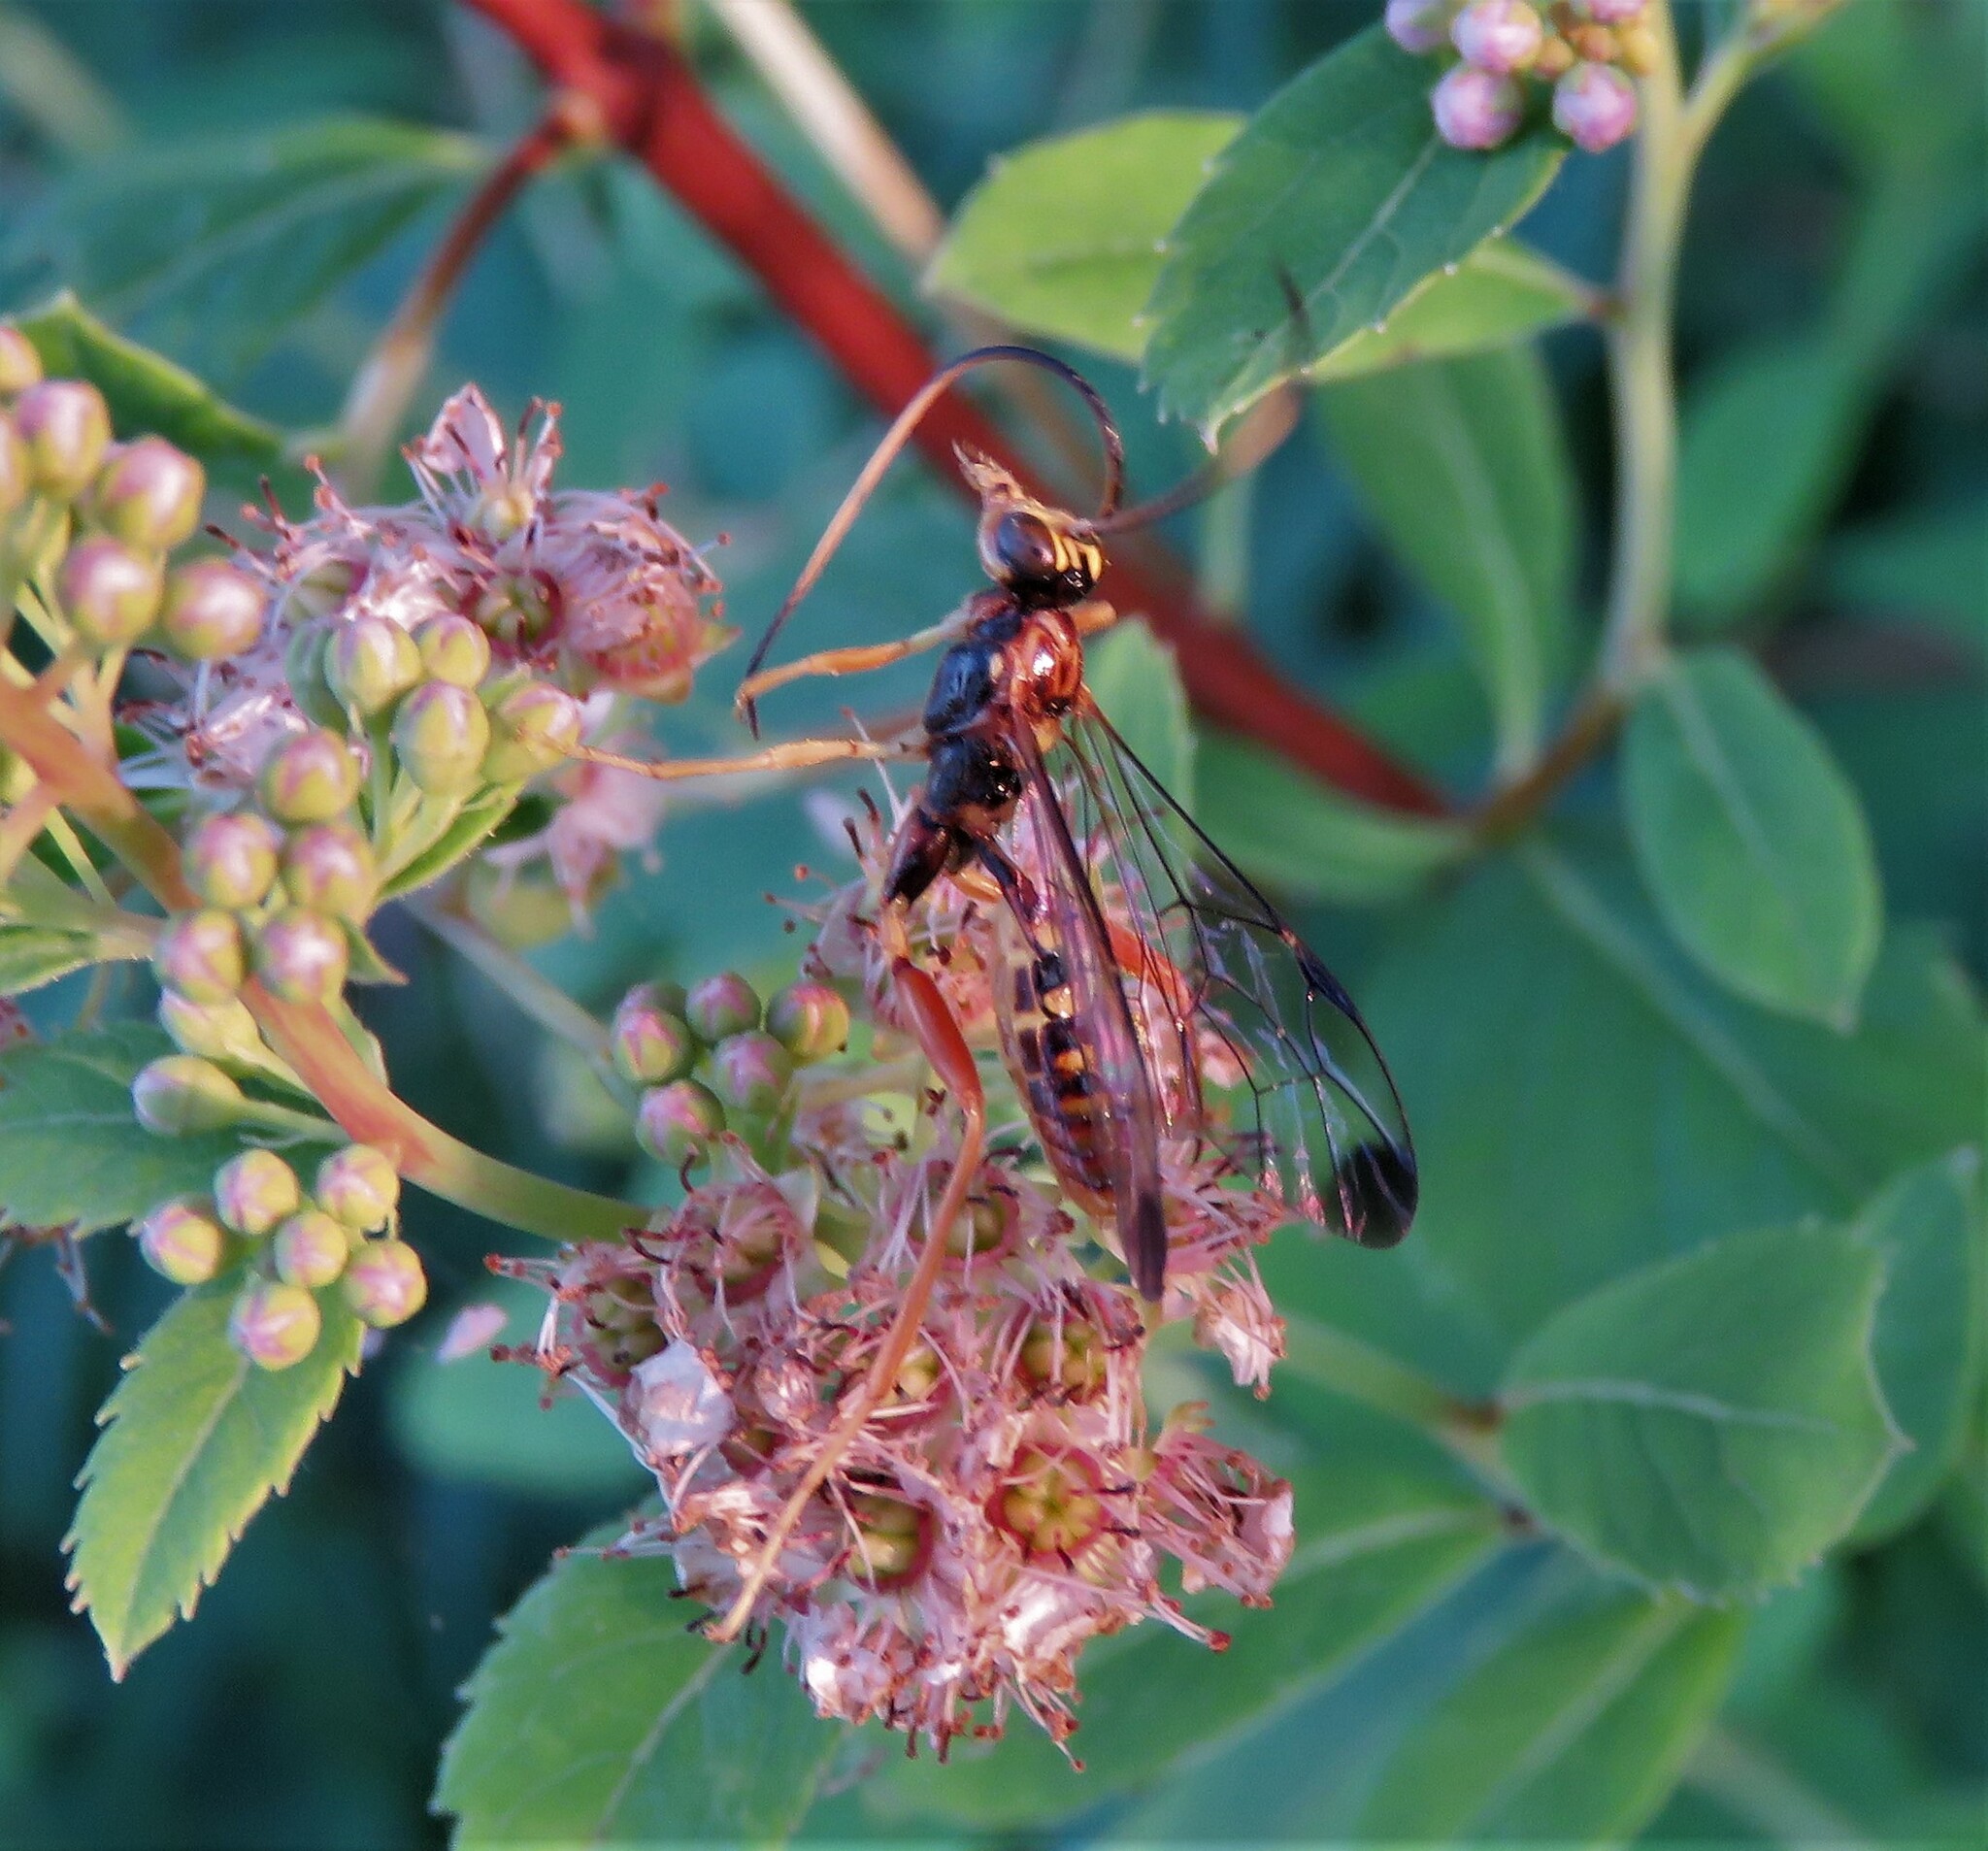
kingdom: Animalia
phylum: Arthropoda
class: Insecta
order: Hymenoptera
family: Ichneumonidae
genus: Spilopteron
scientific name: Spilopteron vicinum
